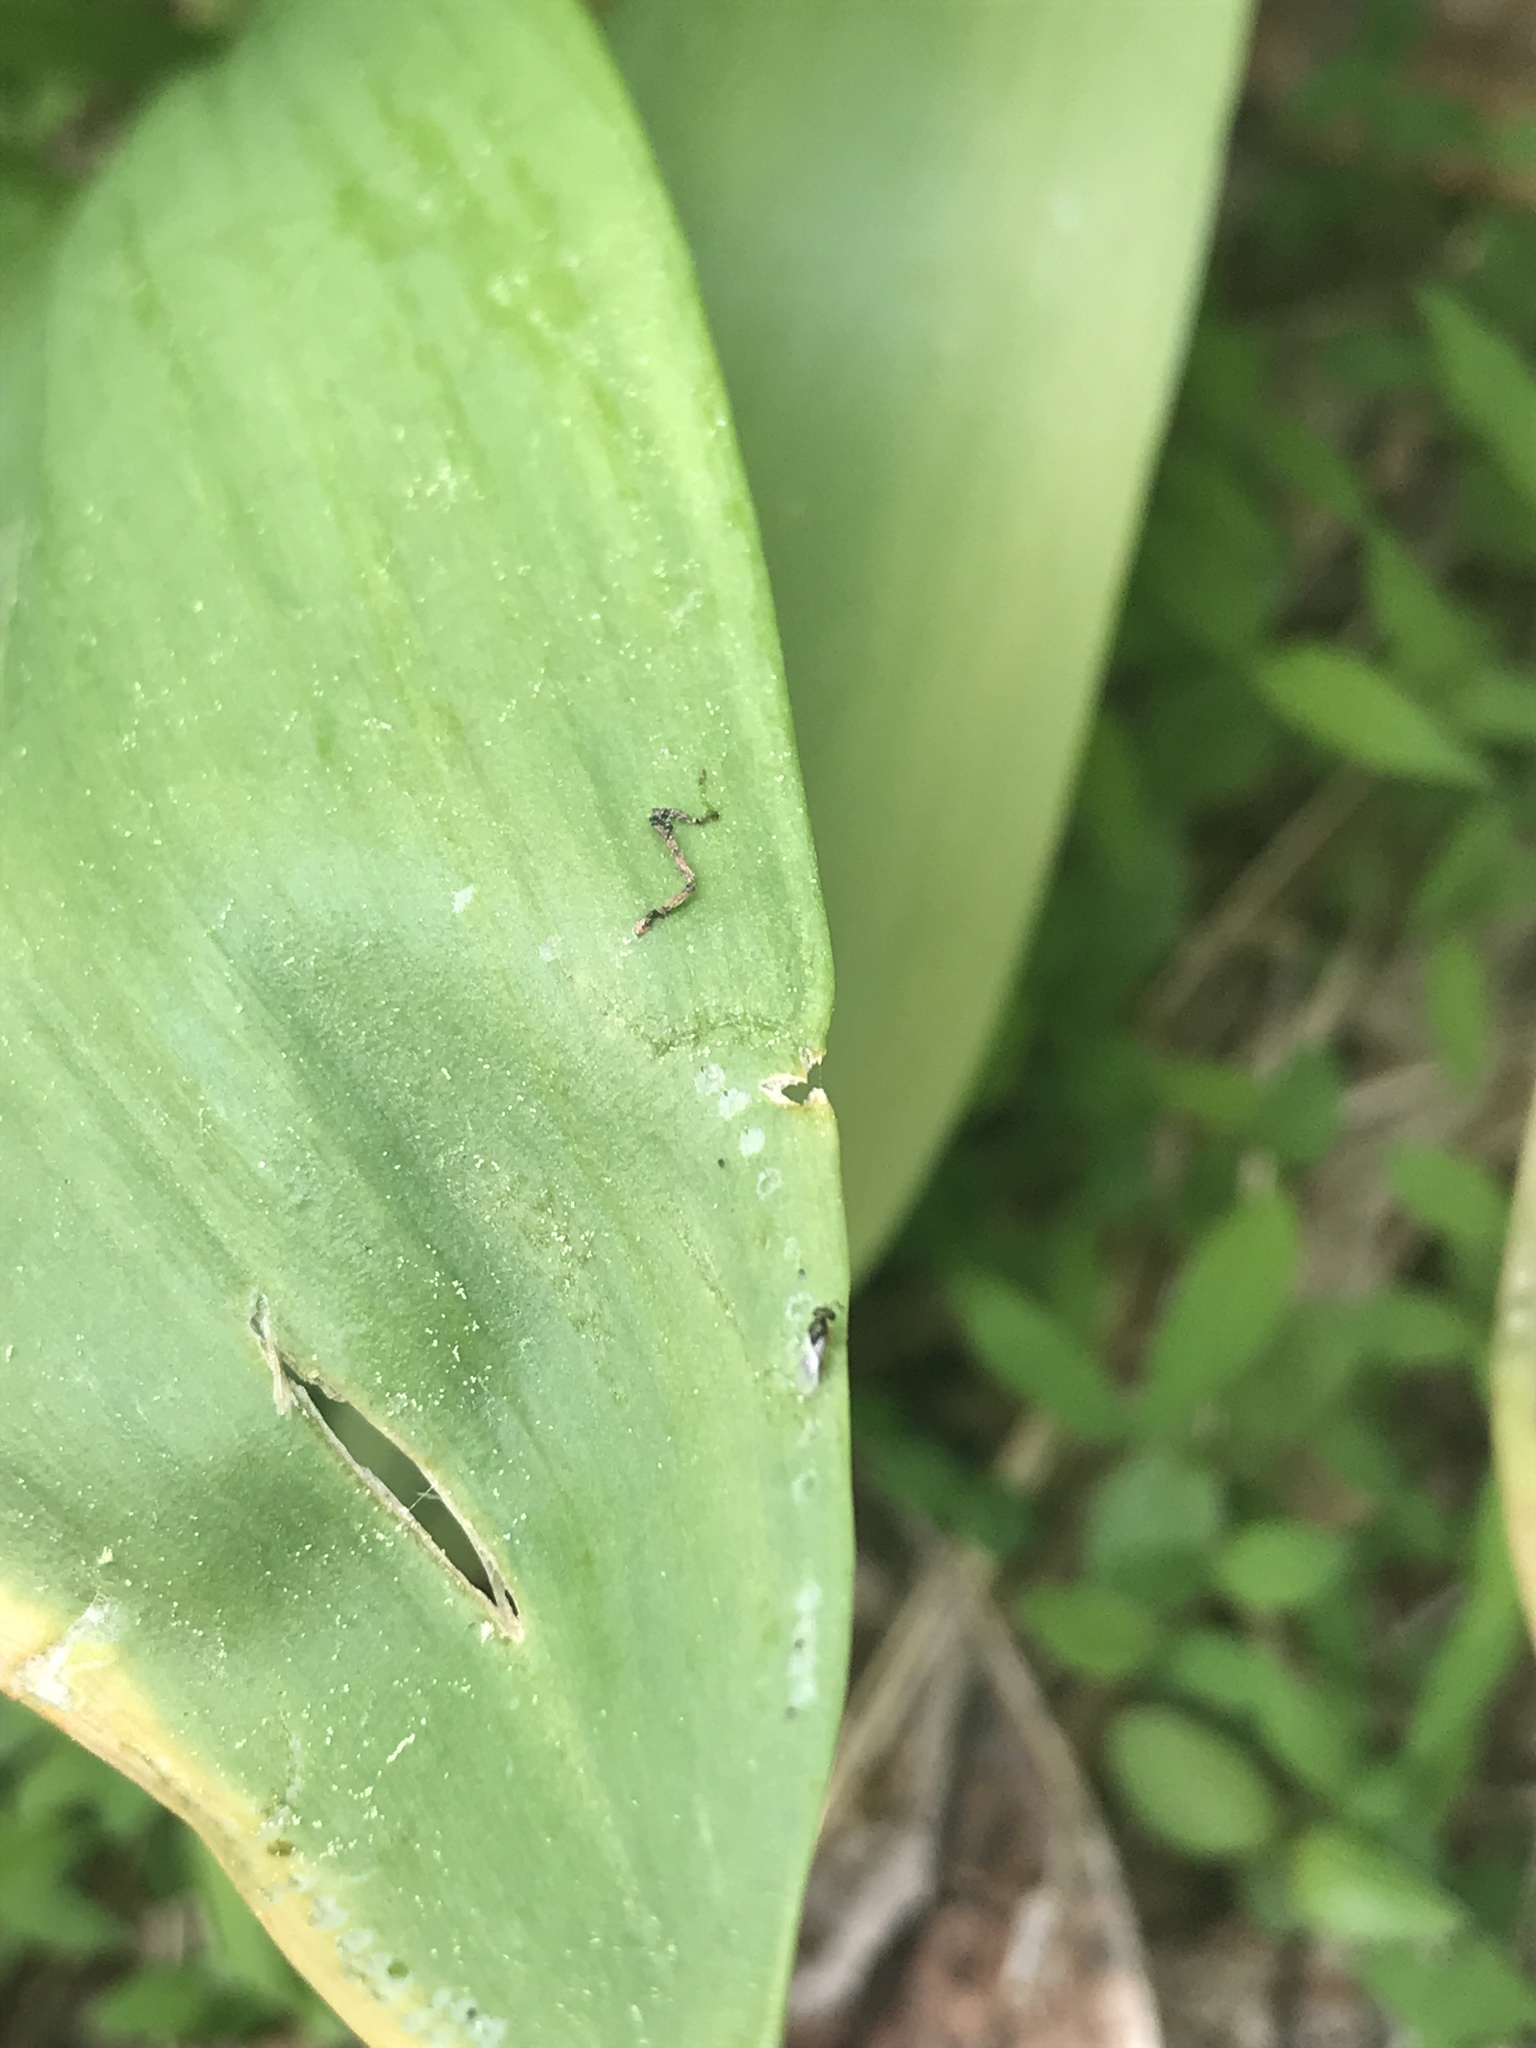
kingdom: Animalia
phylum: Arthropoda
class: Insecta
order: Hymenoptera
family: Formicidae
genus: Tapinoma
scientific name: Tapinoma sessile
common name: Odorous house ant
